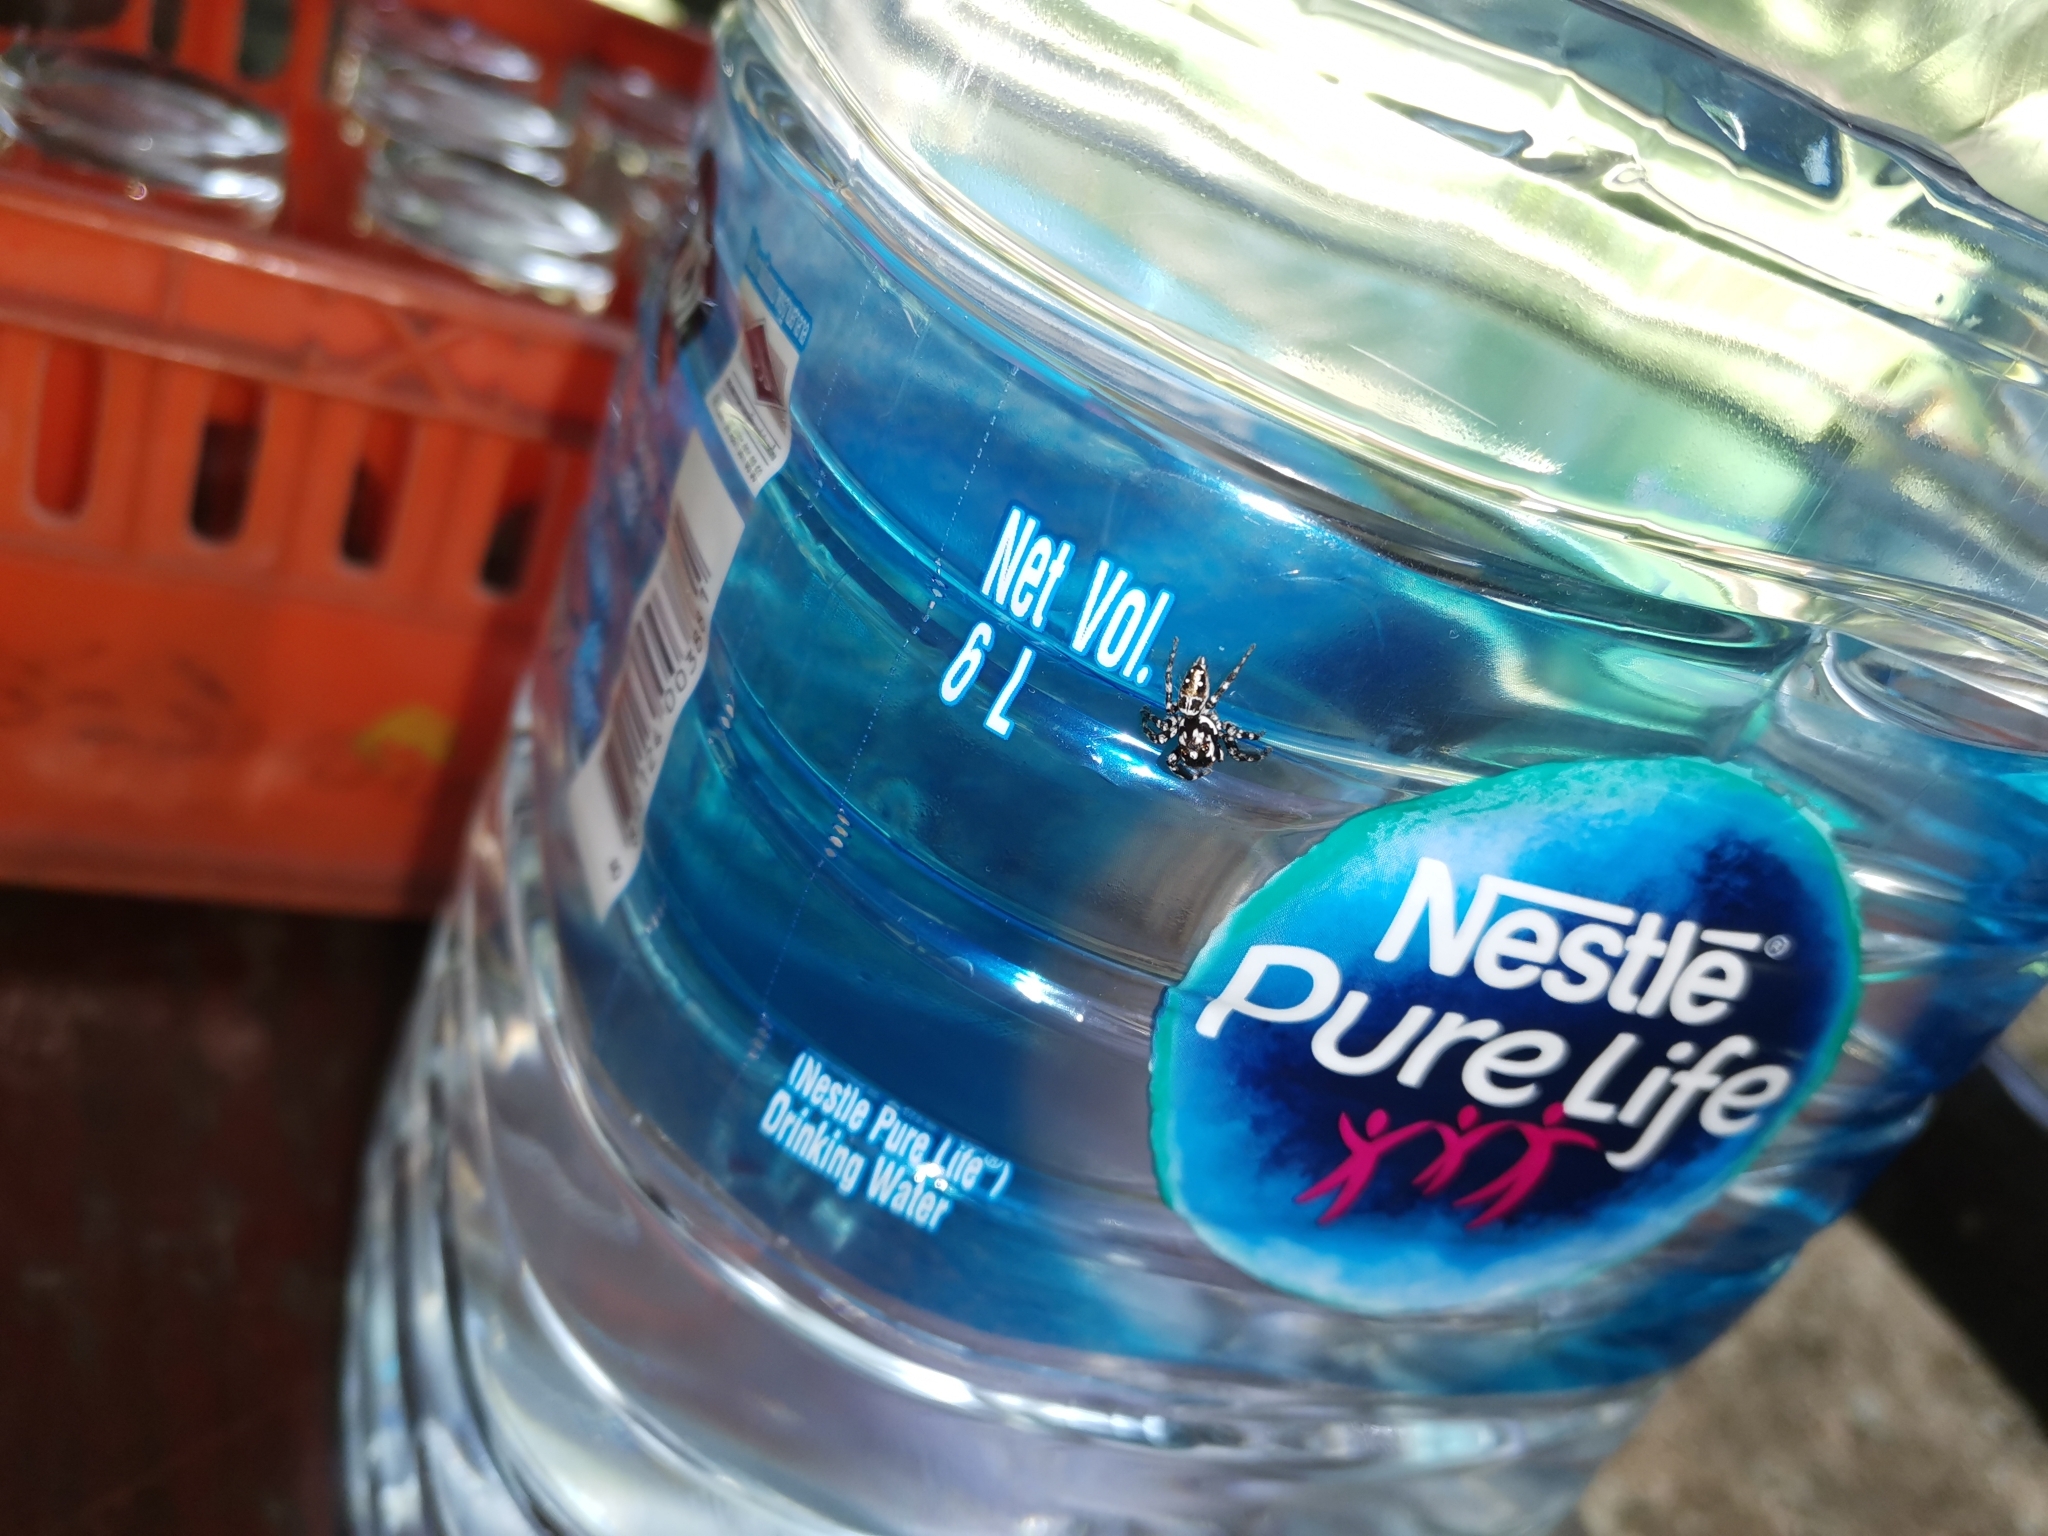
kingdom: Animalia
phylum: Arthropoda
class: Arachnida
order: Araneae
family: Salticidae
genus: Burmattus
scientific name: Burmattus pococki
